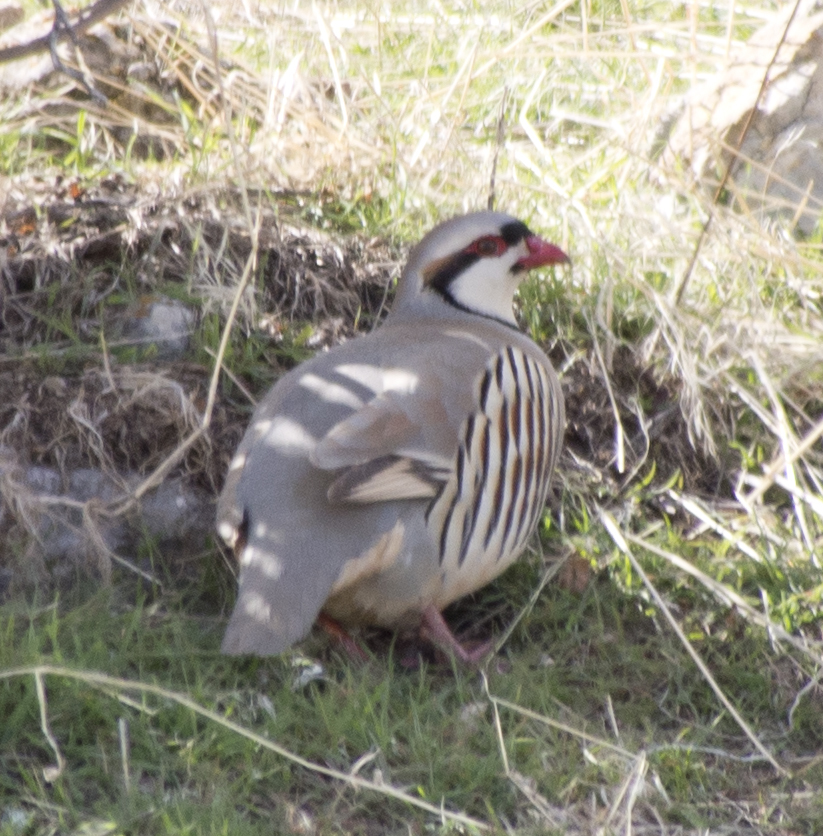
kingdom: Animalia
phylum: Chordata
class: Aves
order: Galliformes
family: Phasianidae
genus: Alectoris
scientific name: Alectoris chukar
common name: Chukar
